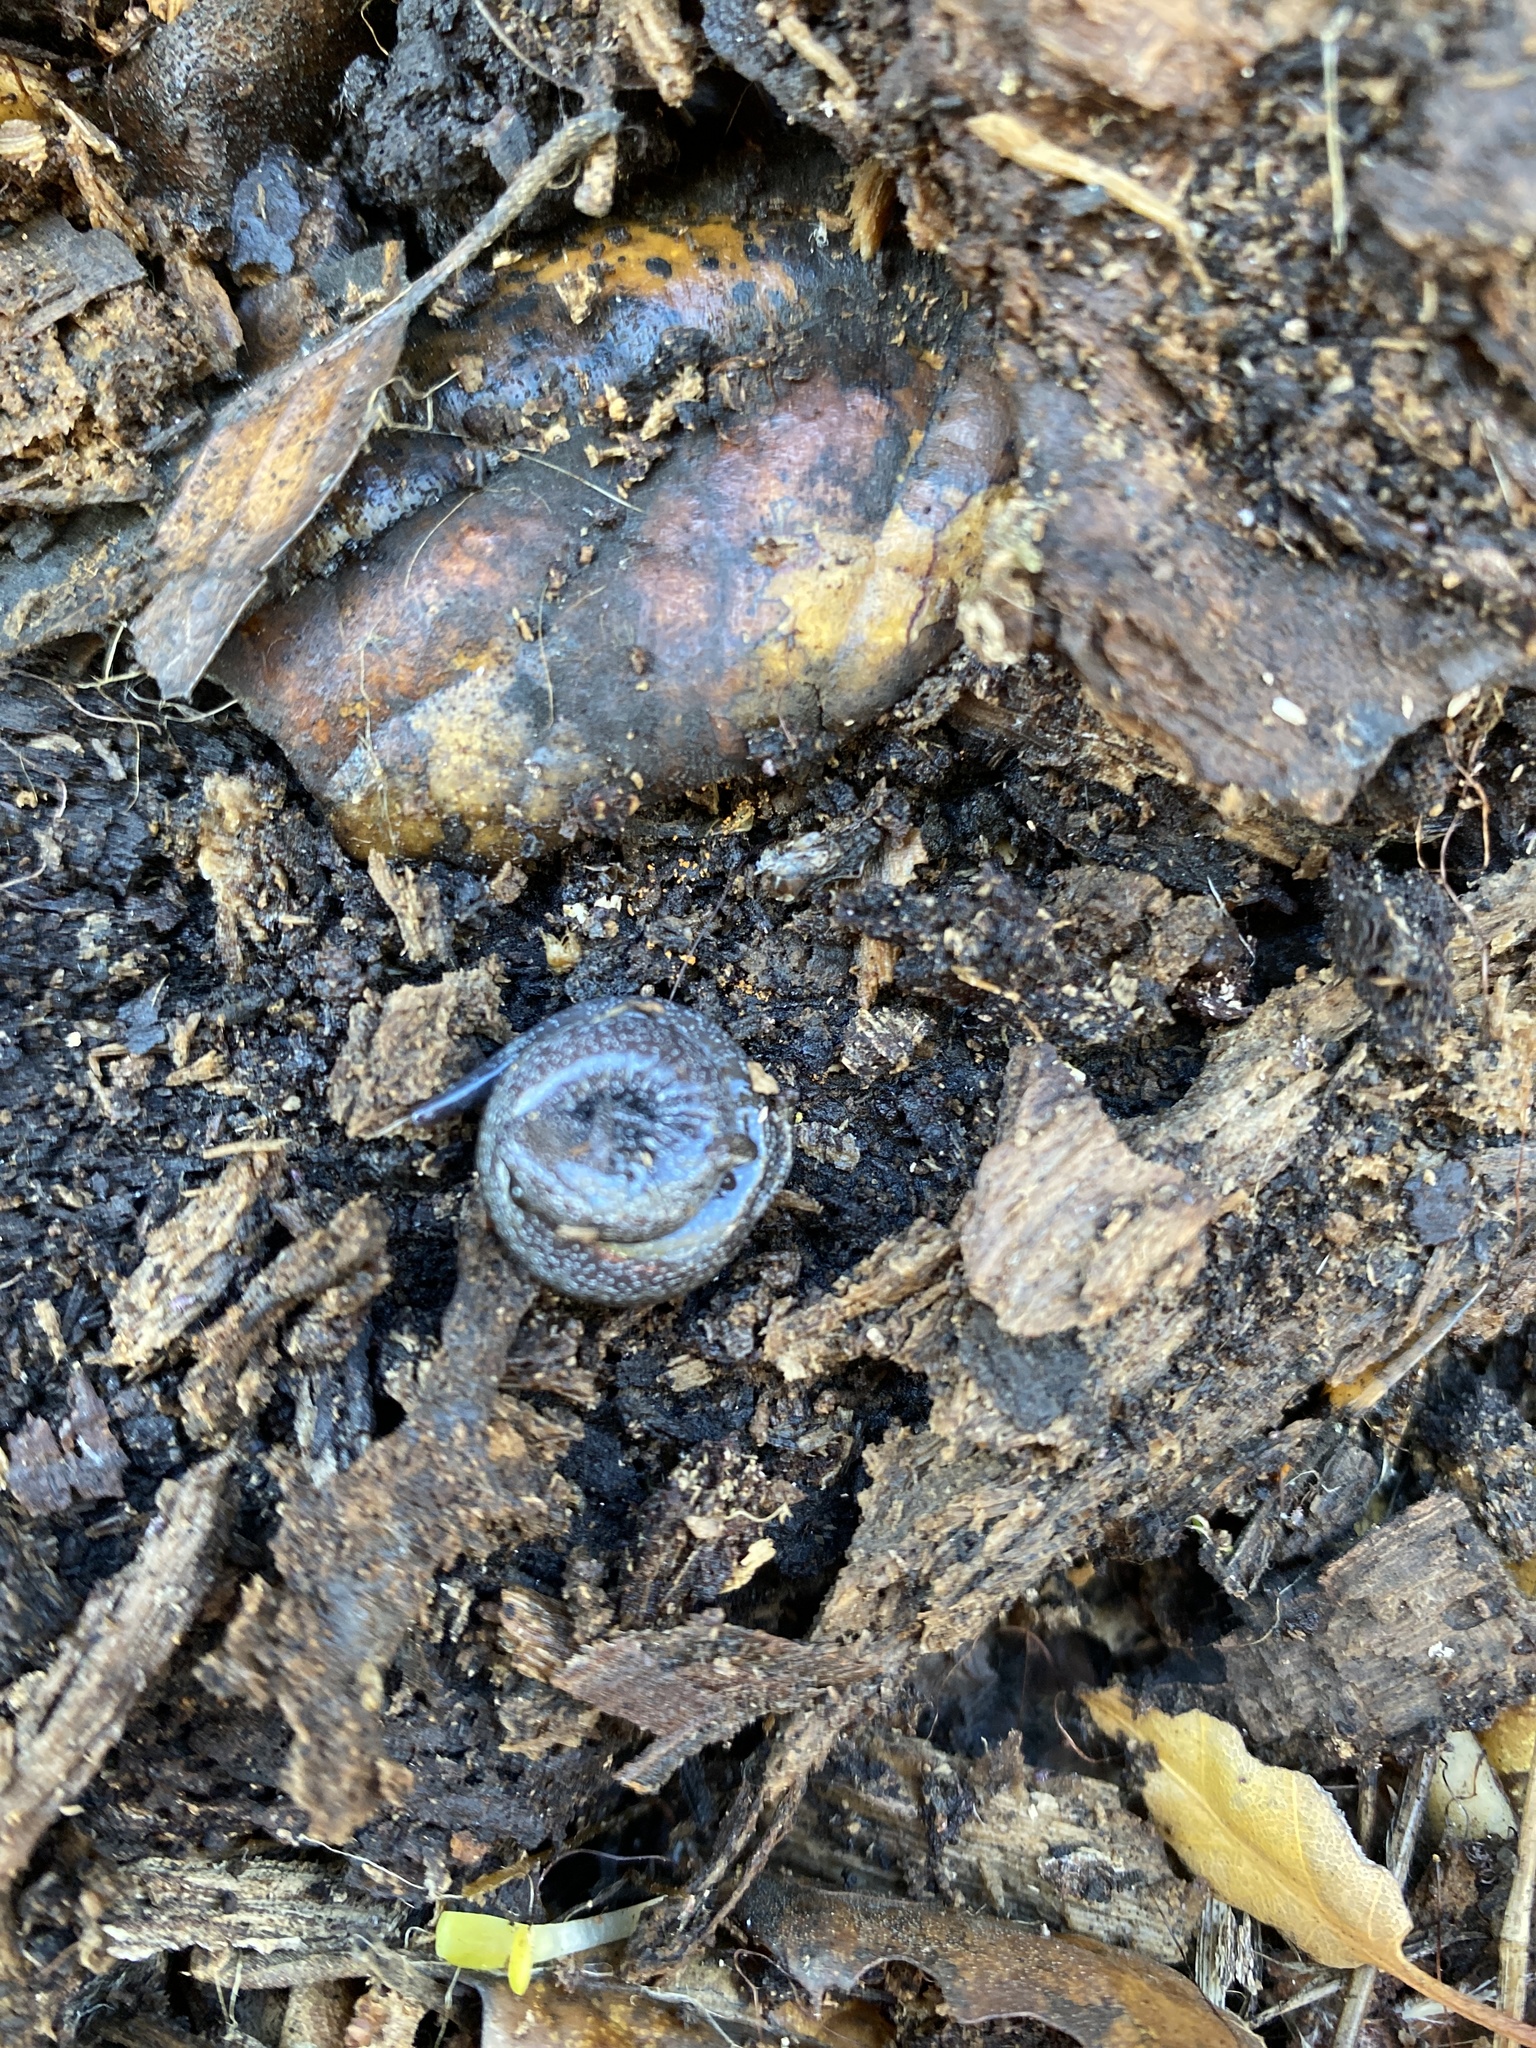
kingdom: Animalia
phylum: Chordata
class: Amphibia
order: Caudata
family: Plethodontidae
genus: Batrachoseps
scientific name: Batrachoseps attenuatus
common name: California slender salamander
